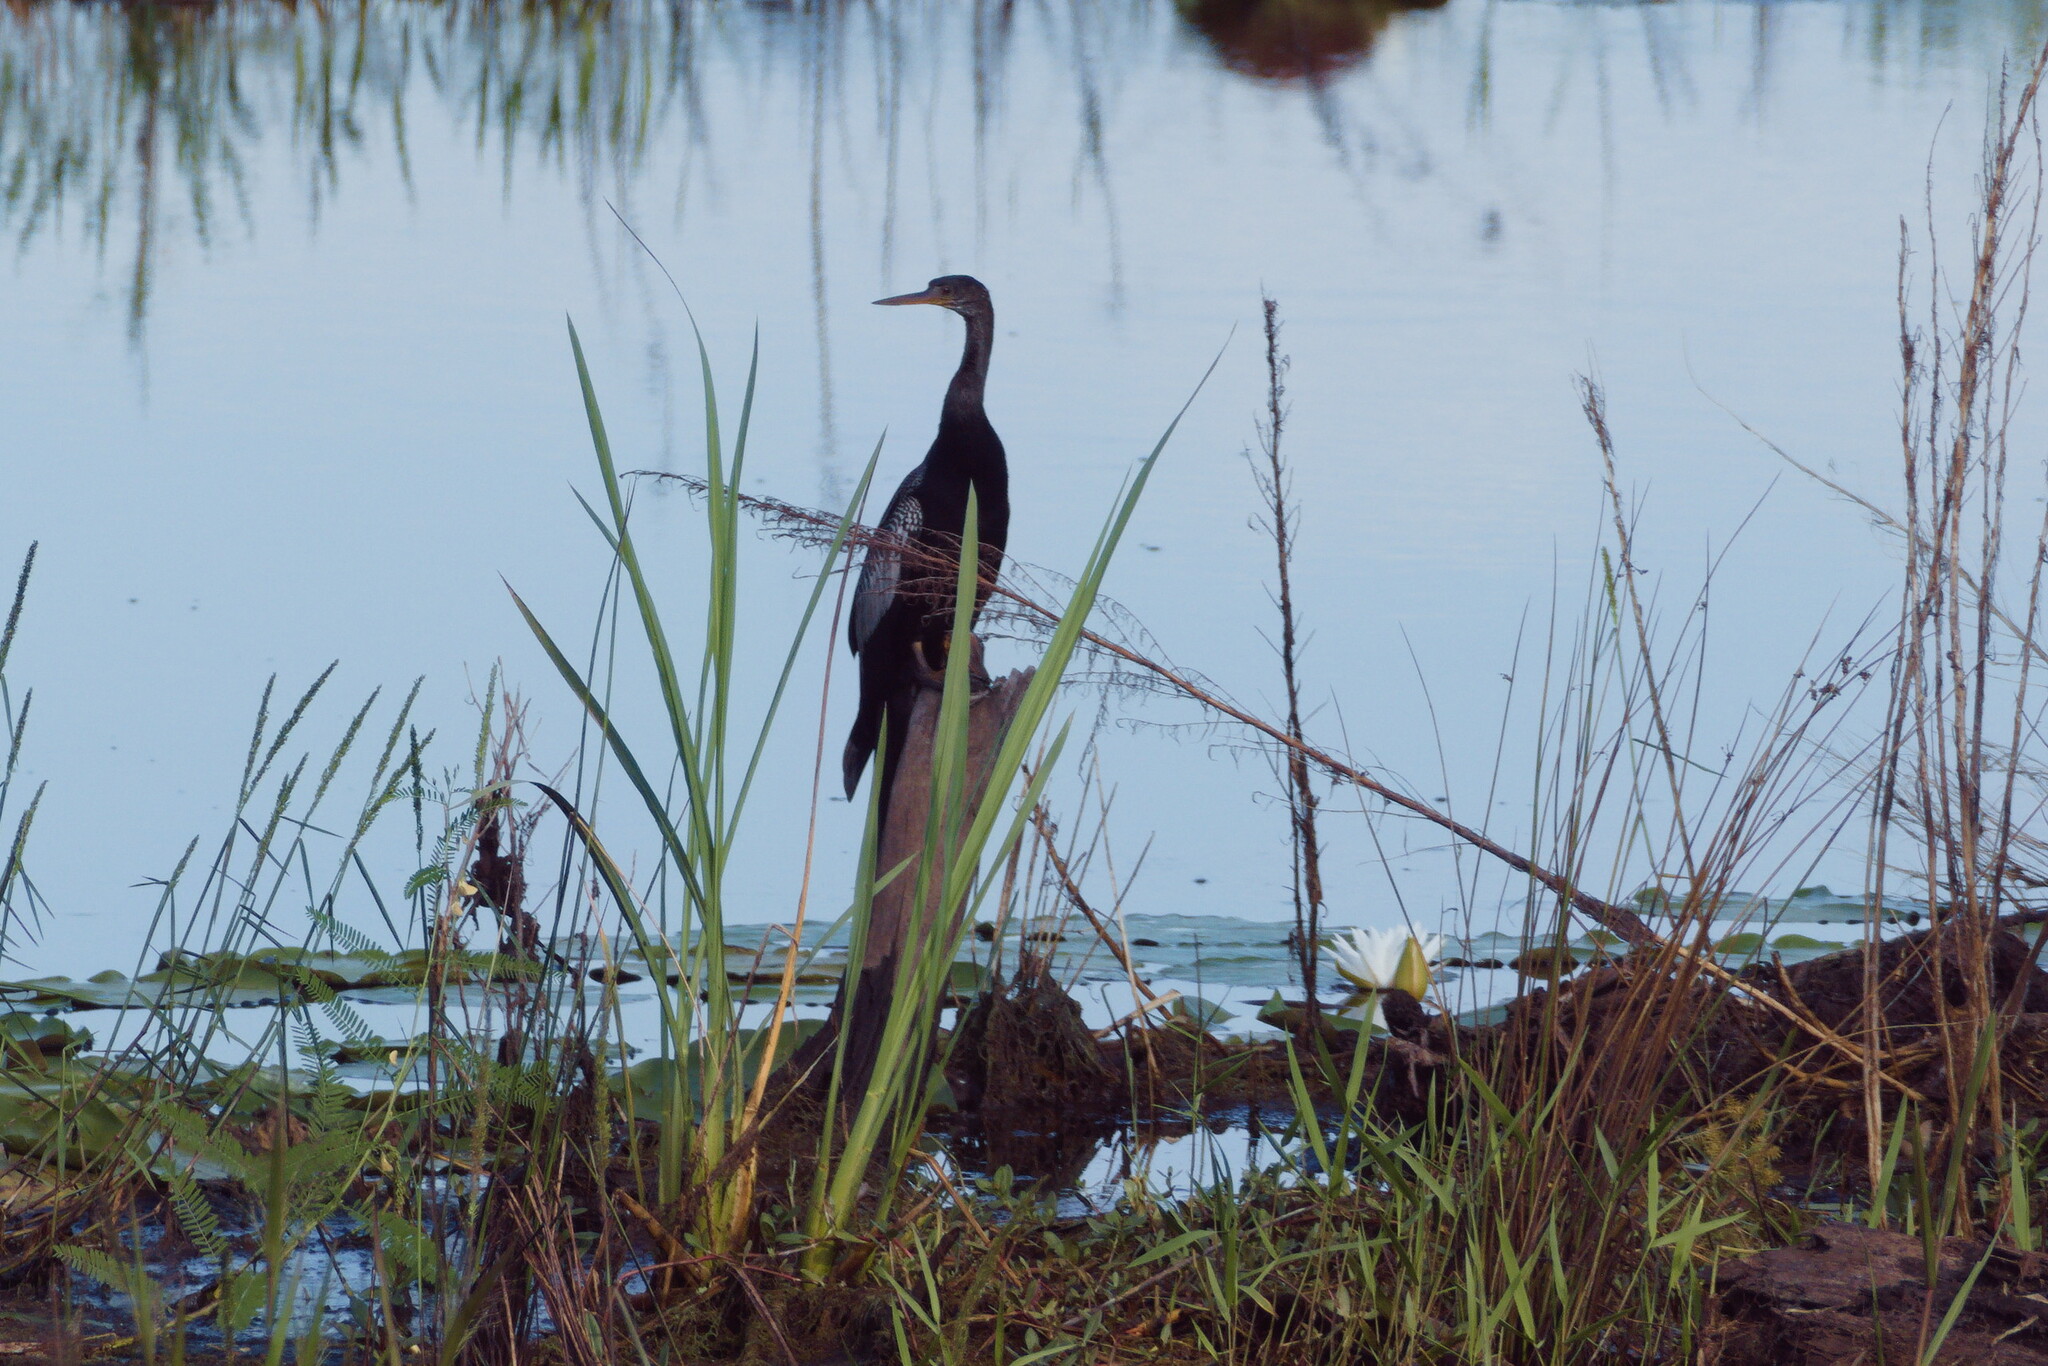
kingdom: Animalia
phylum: Chordata
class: Aves
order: Suliformes
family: Anhingidae
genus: Anhinga
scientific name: Anhinga anhinga
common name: Anhinga
